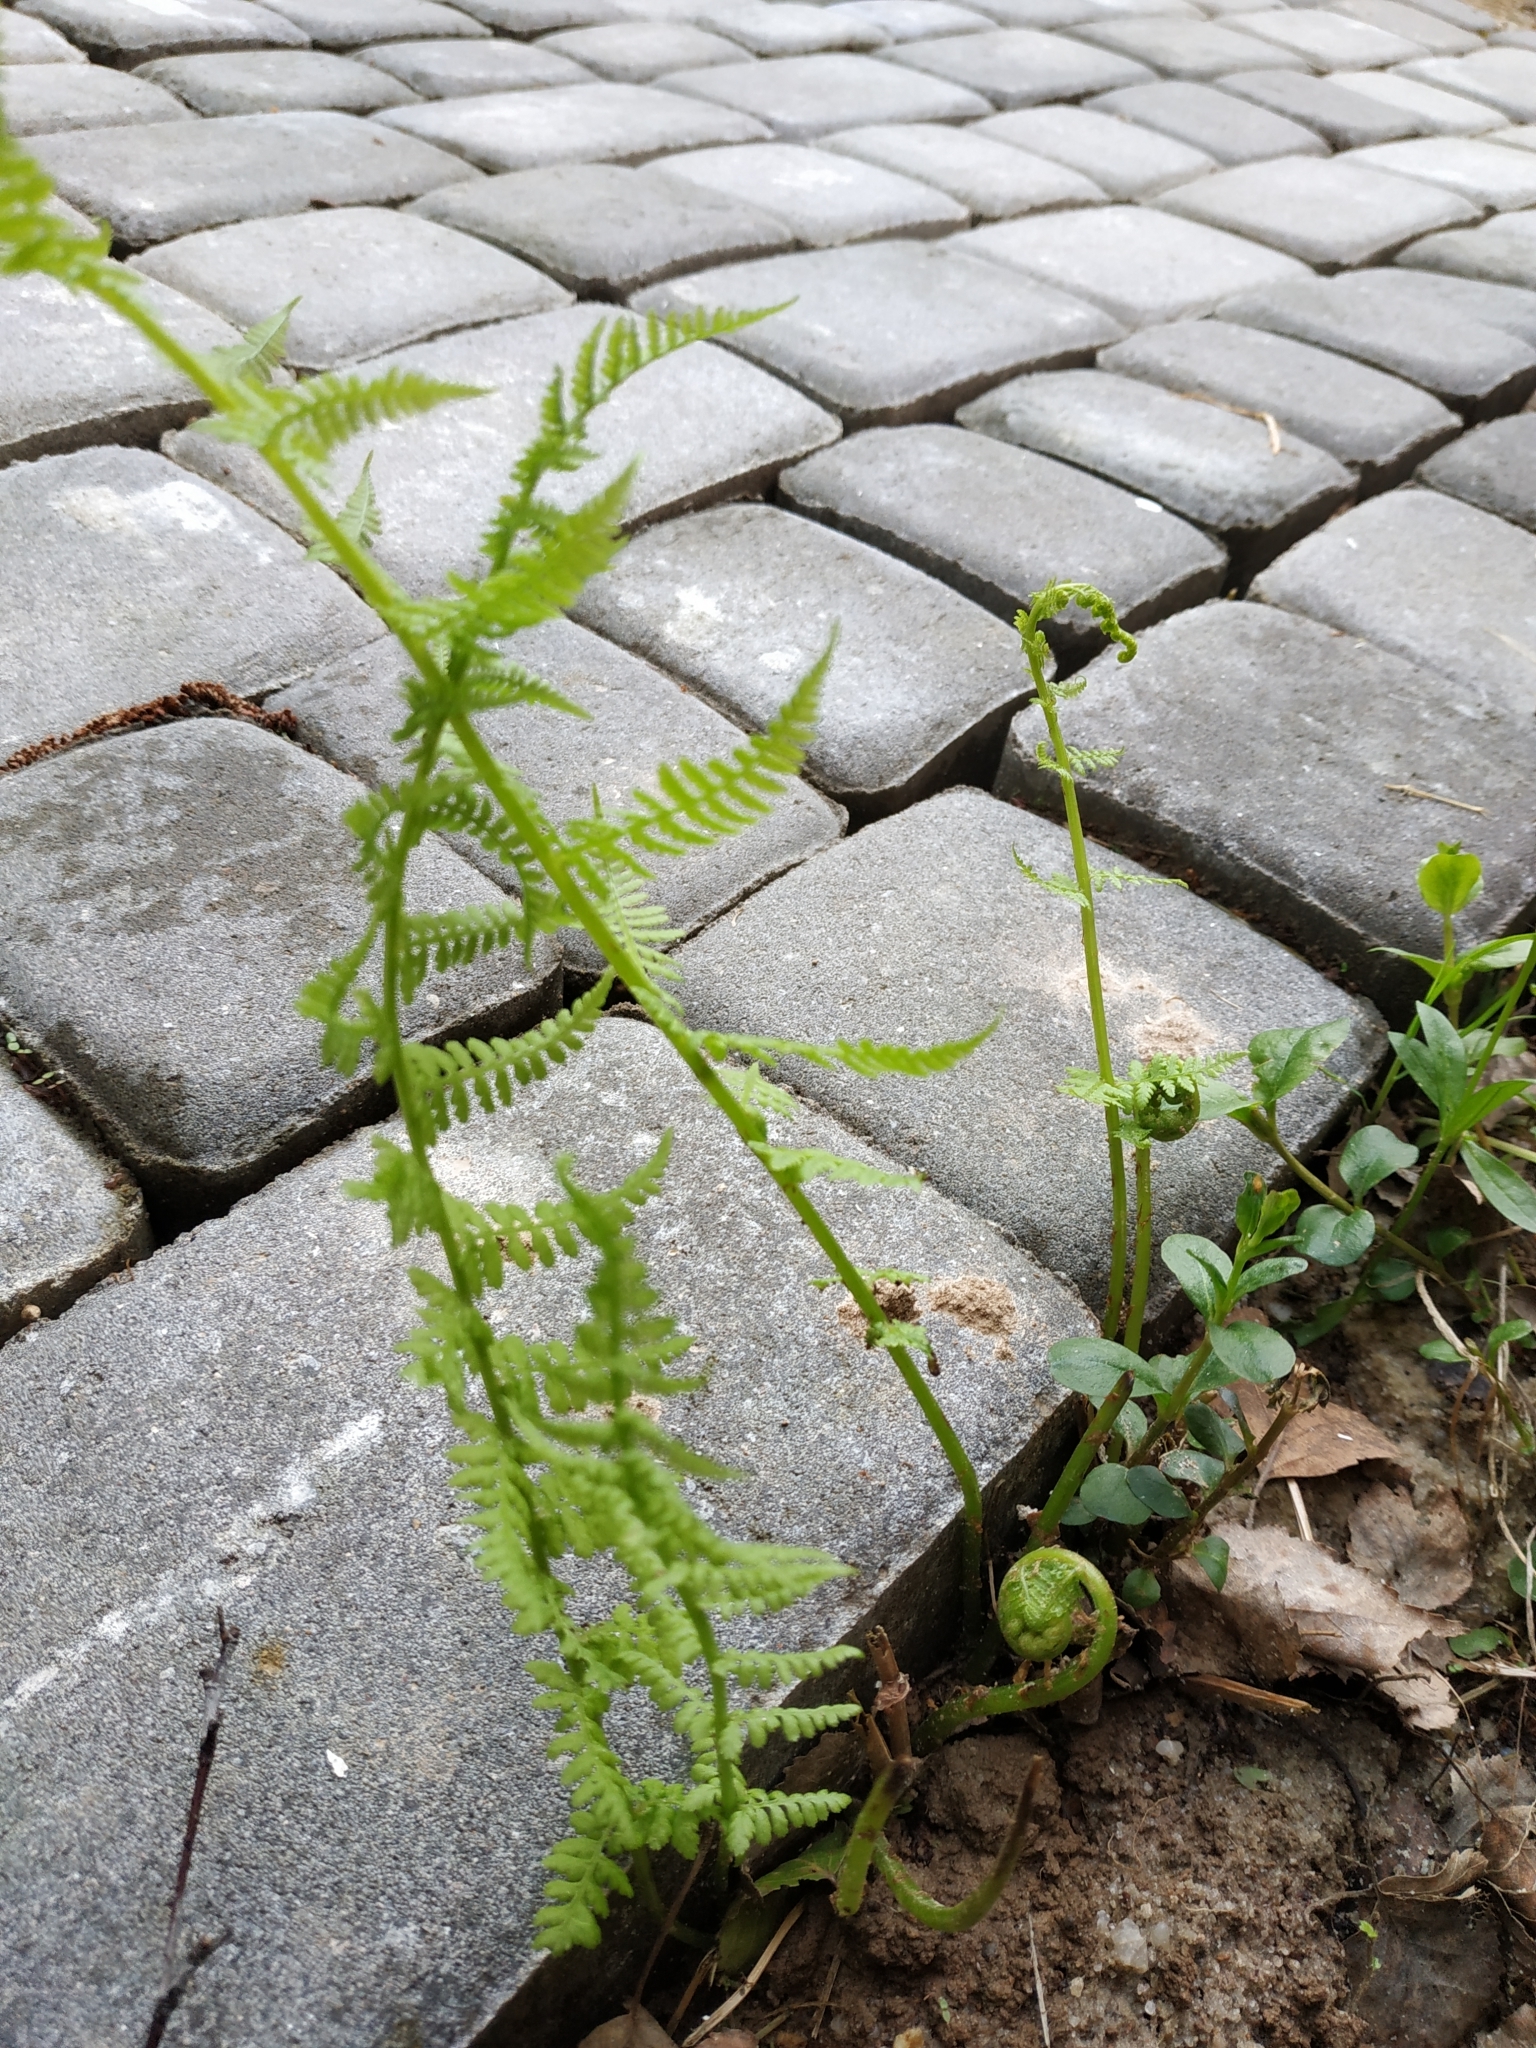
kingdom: Plantae
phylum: Tracheophyta
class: Polypodiopsida
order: Polypodiales
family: Athyriaceae
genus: Athyrium
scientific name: Athyrium filix-femina
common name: Lady fern
